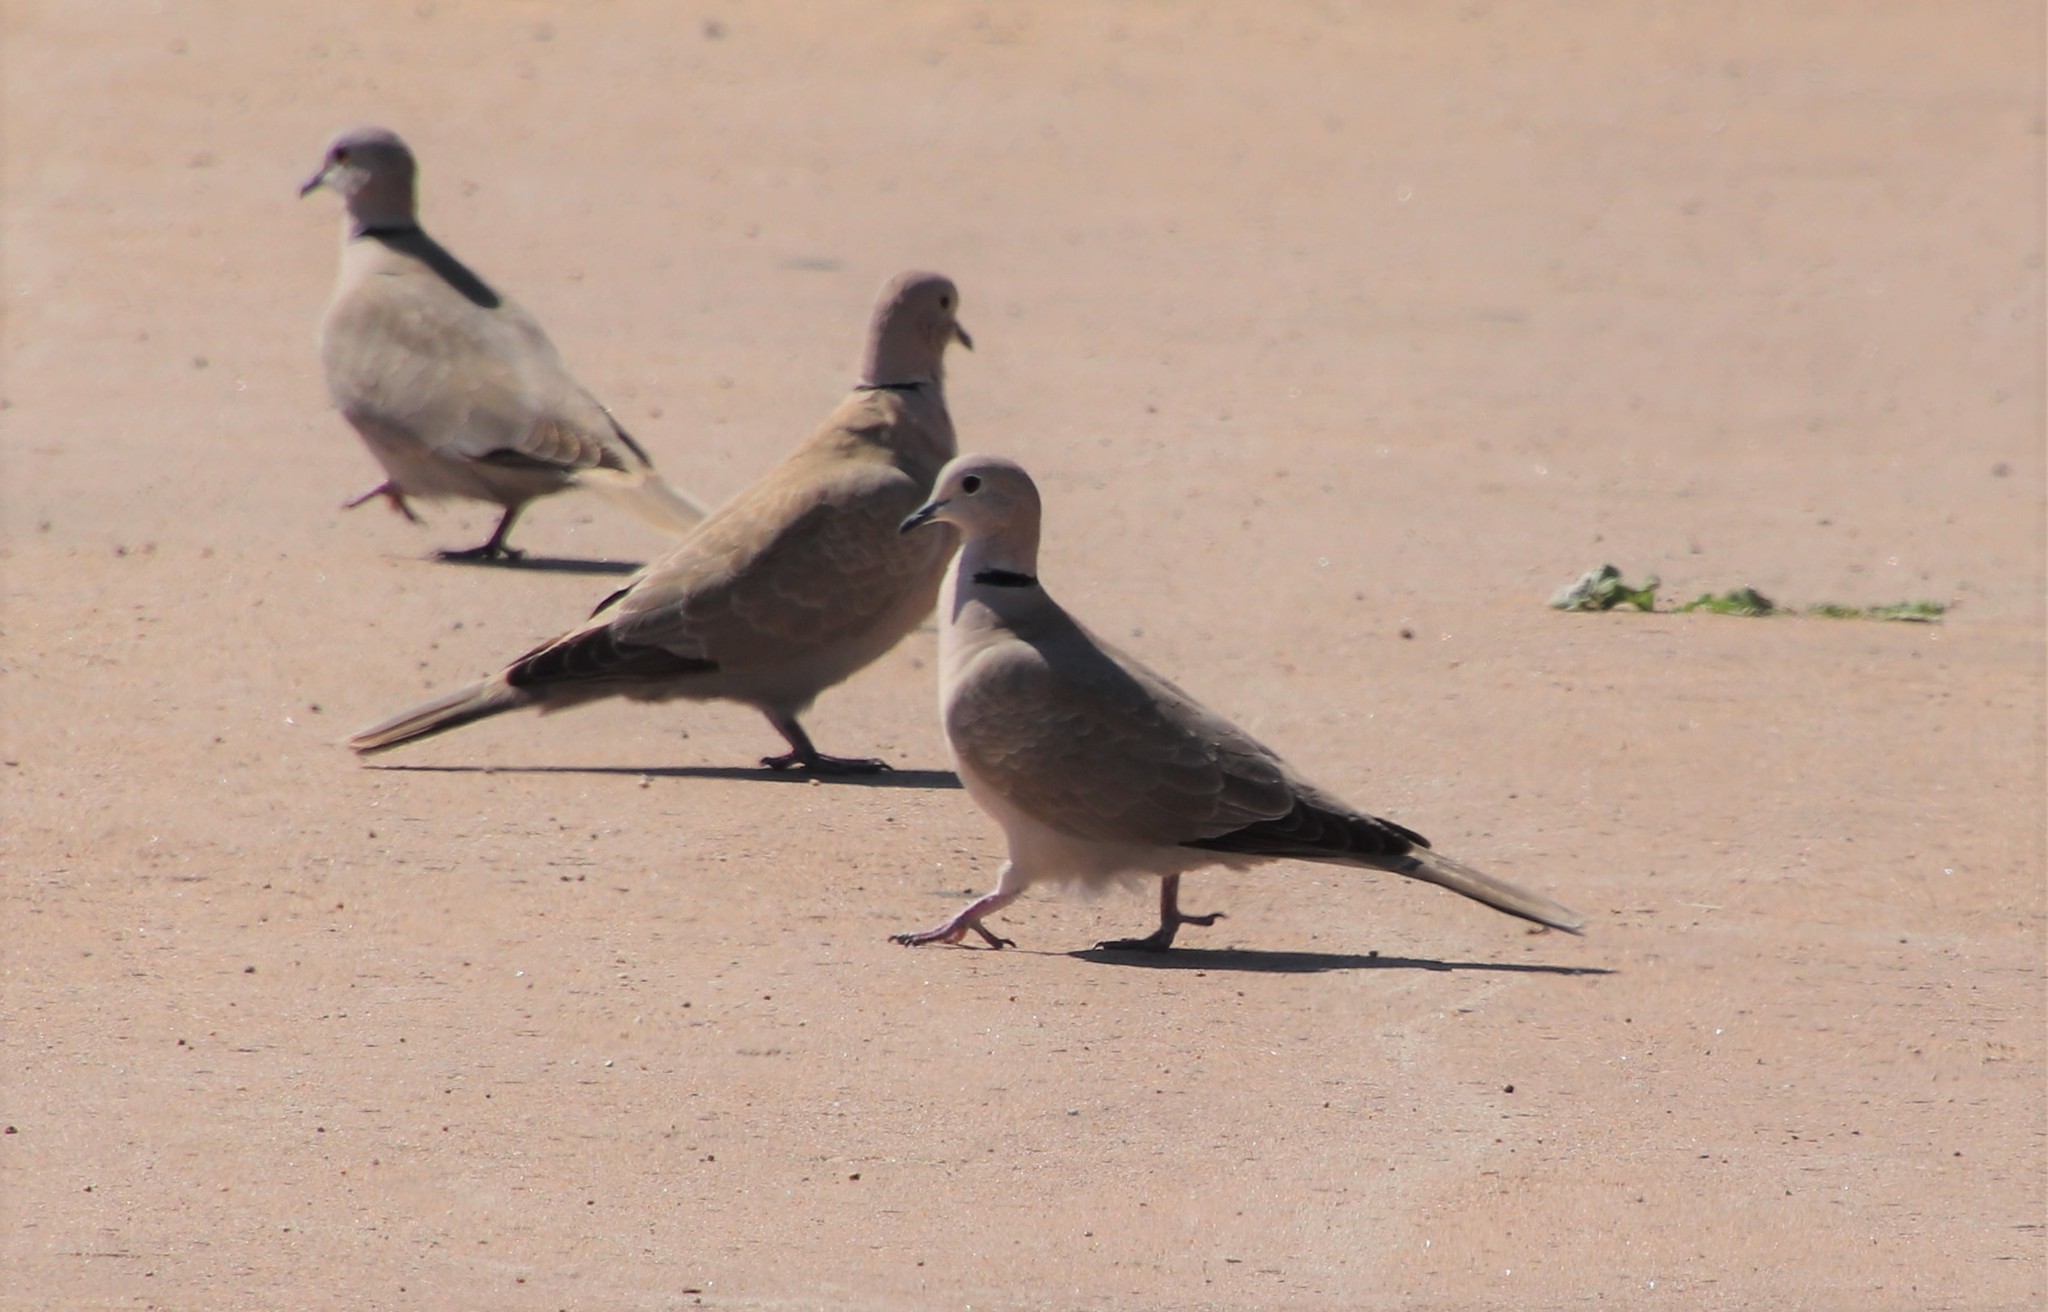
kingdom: Animalia
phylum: Chordata
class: Aves
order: Columbiformes
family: Columbidae
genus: Streptopelia
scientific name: Streptopelia decaocto
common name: Eurasian collared dove
